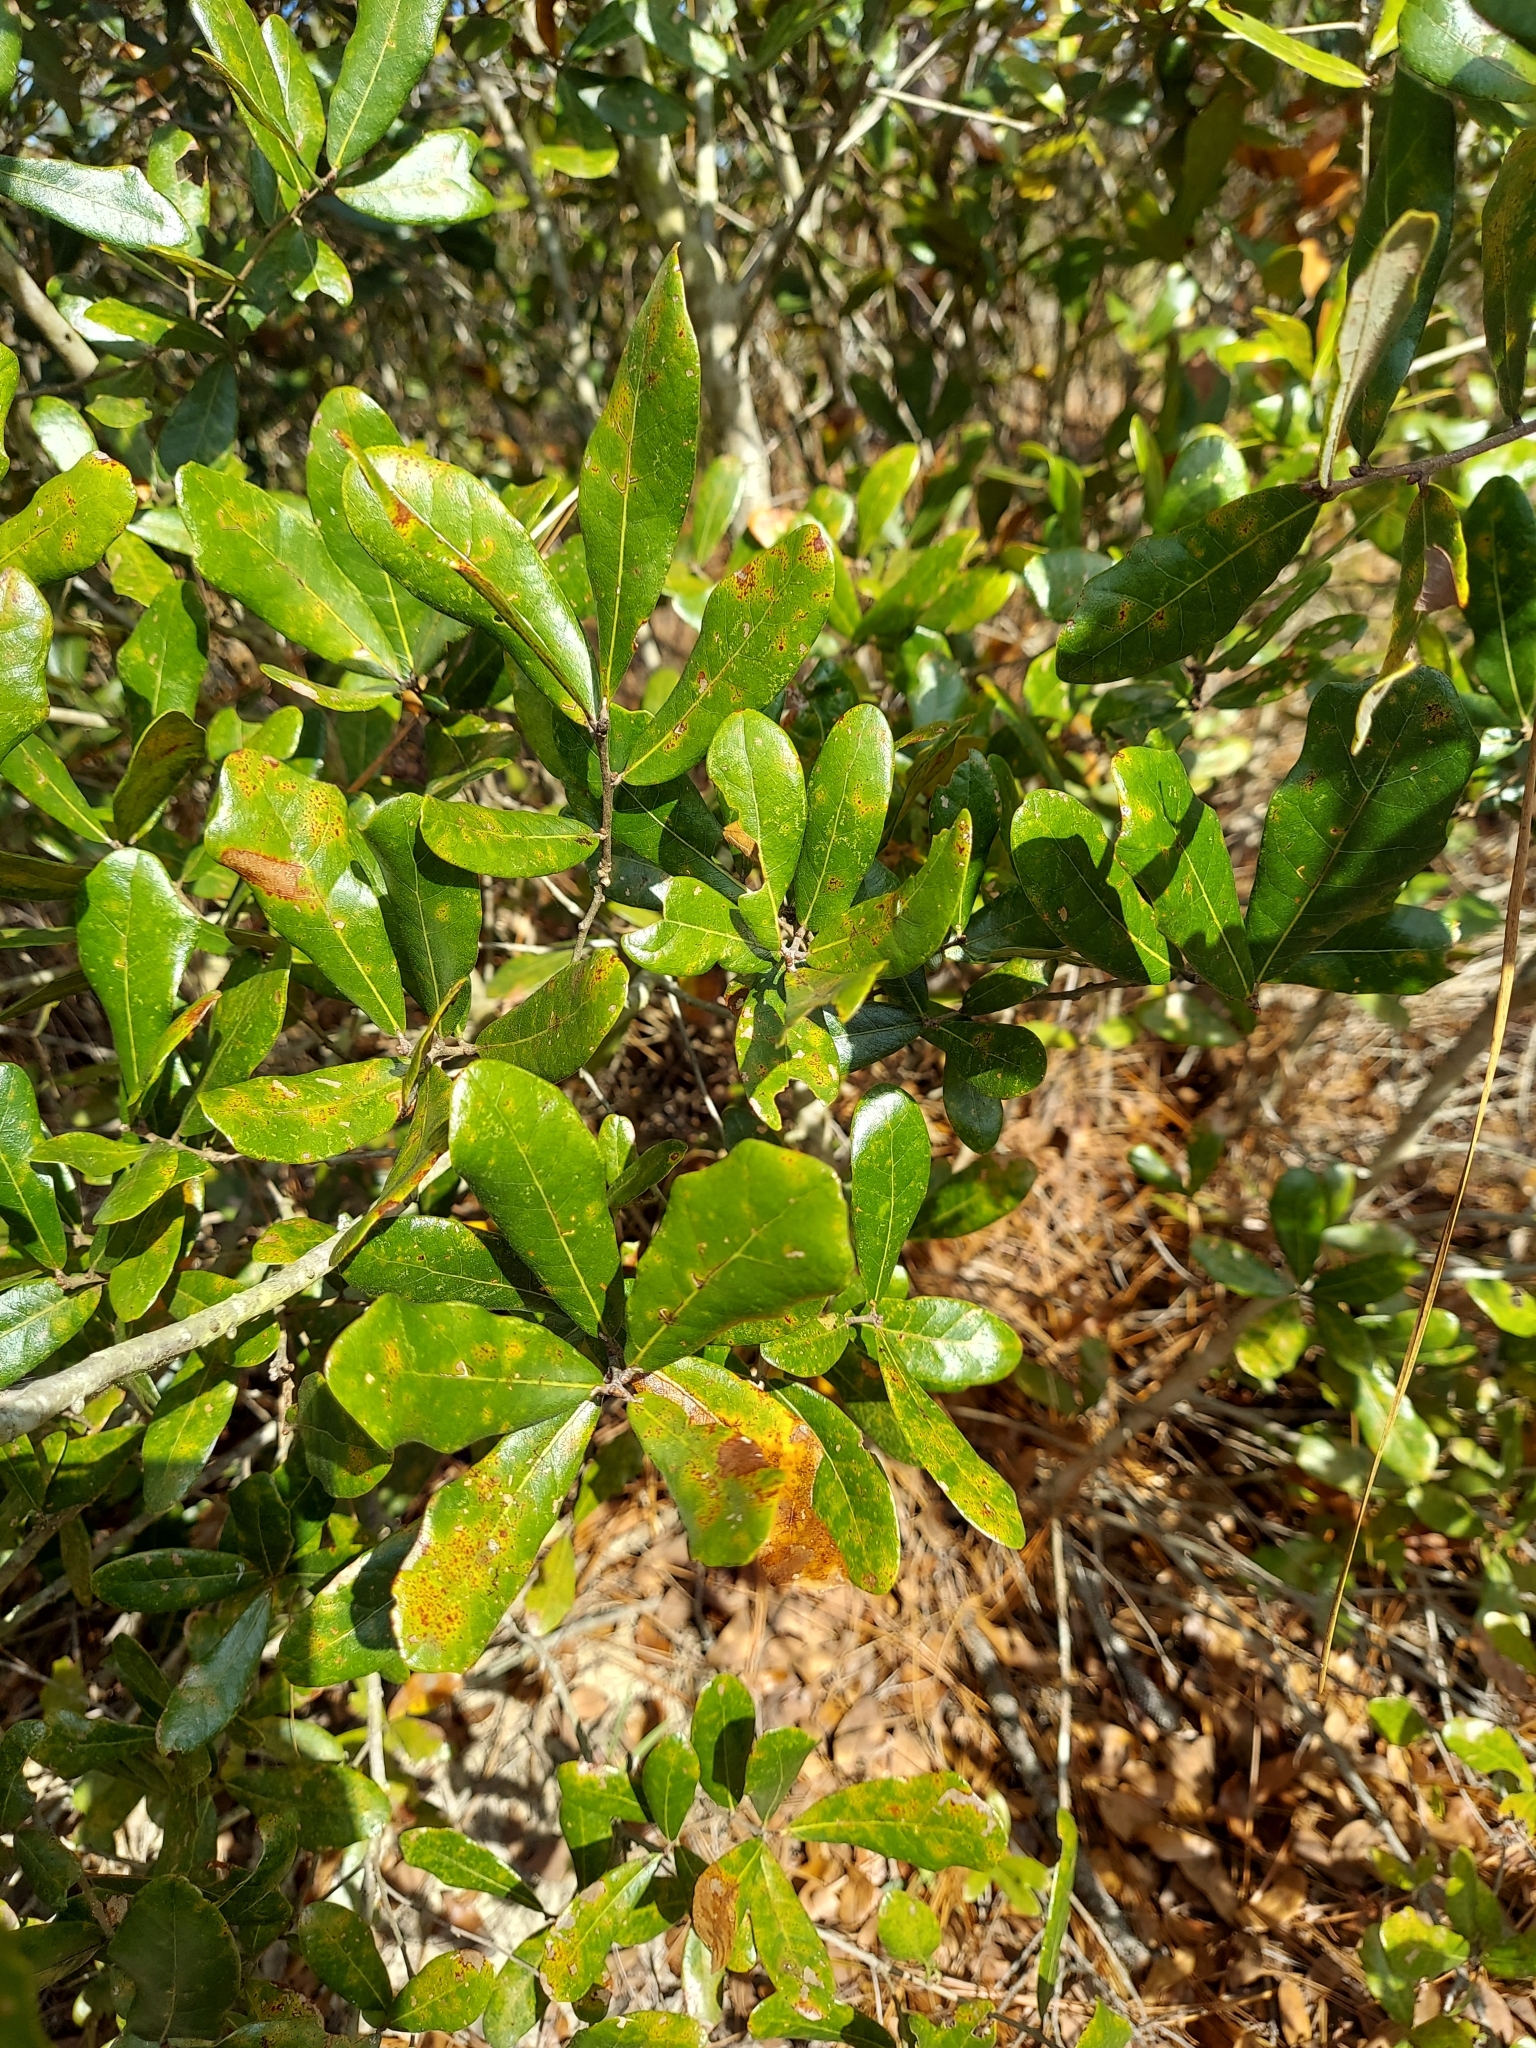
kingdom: Plantae
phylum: Tracheophyta
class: Magnoliopsida
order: Fagales
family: Fagaceae
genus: Quercus
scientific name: Quercus chapmanii
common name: Chapman oak
